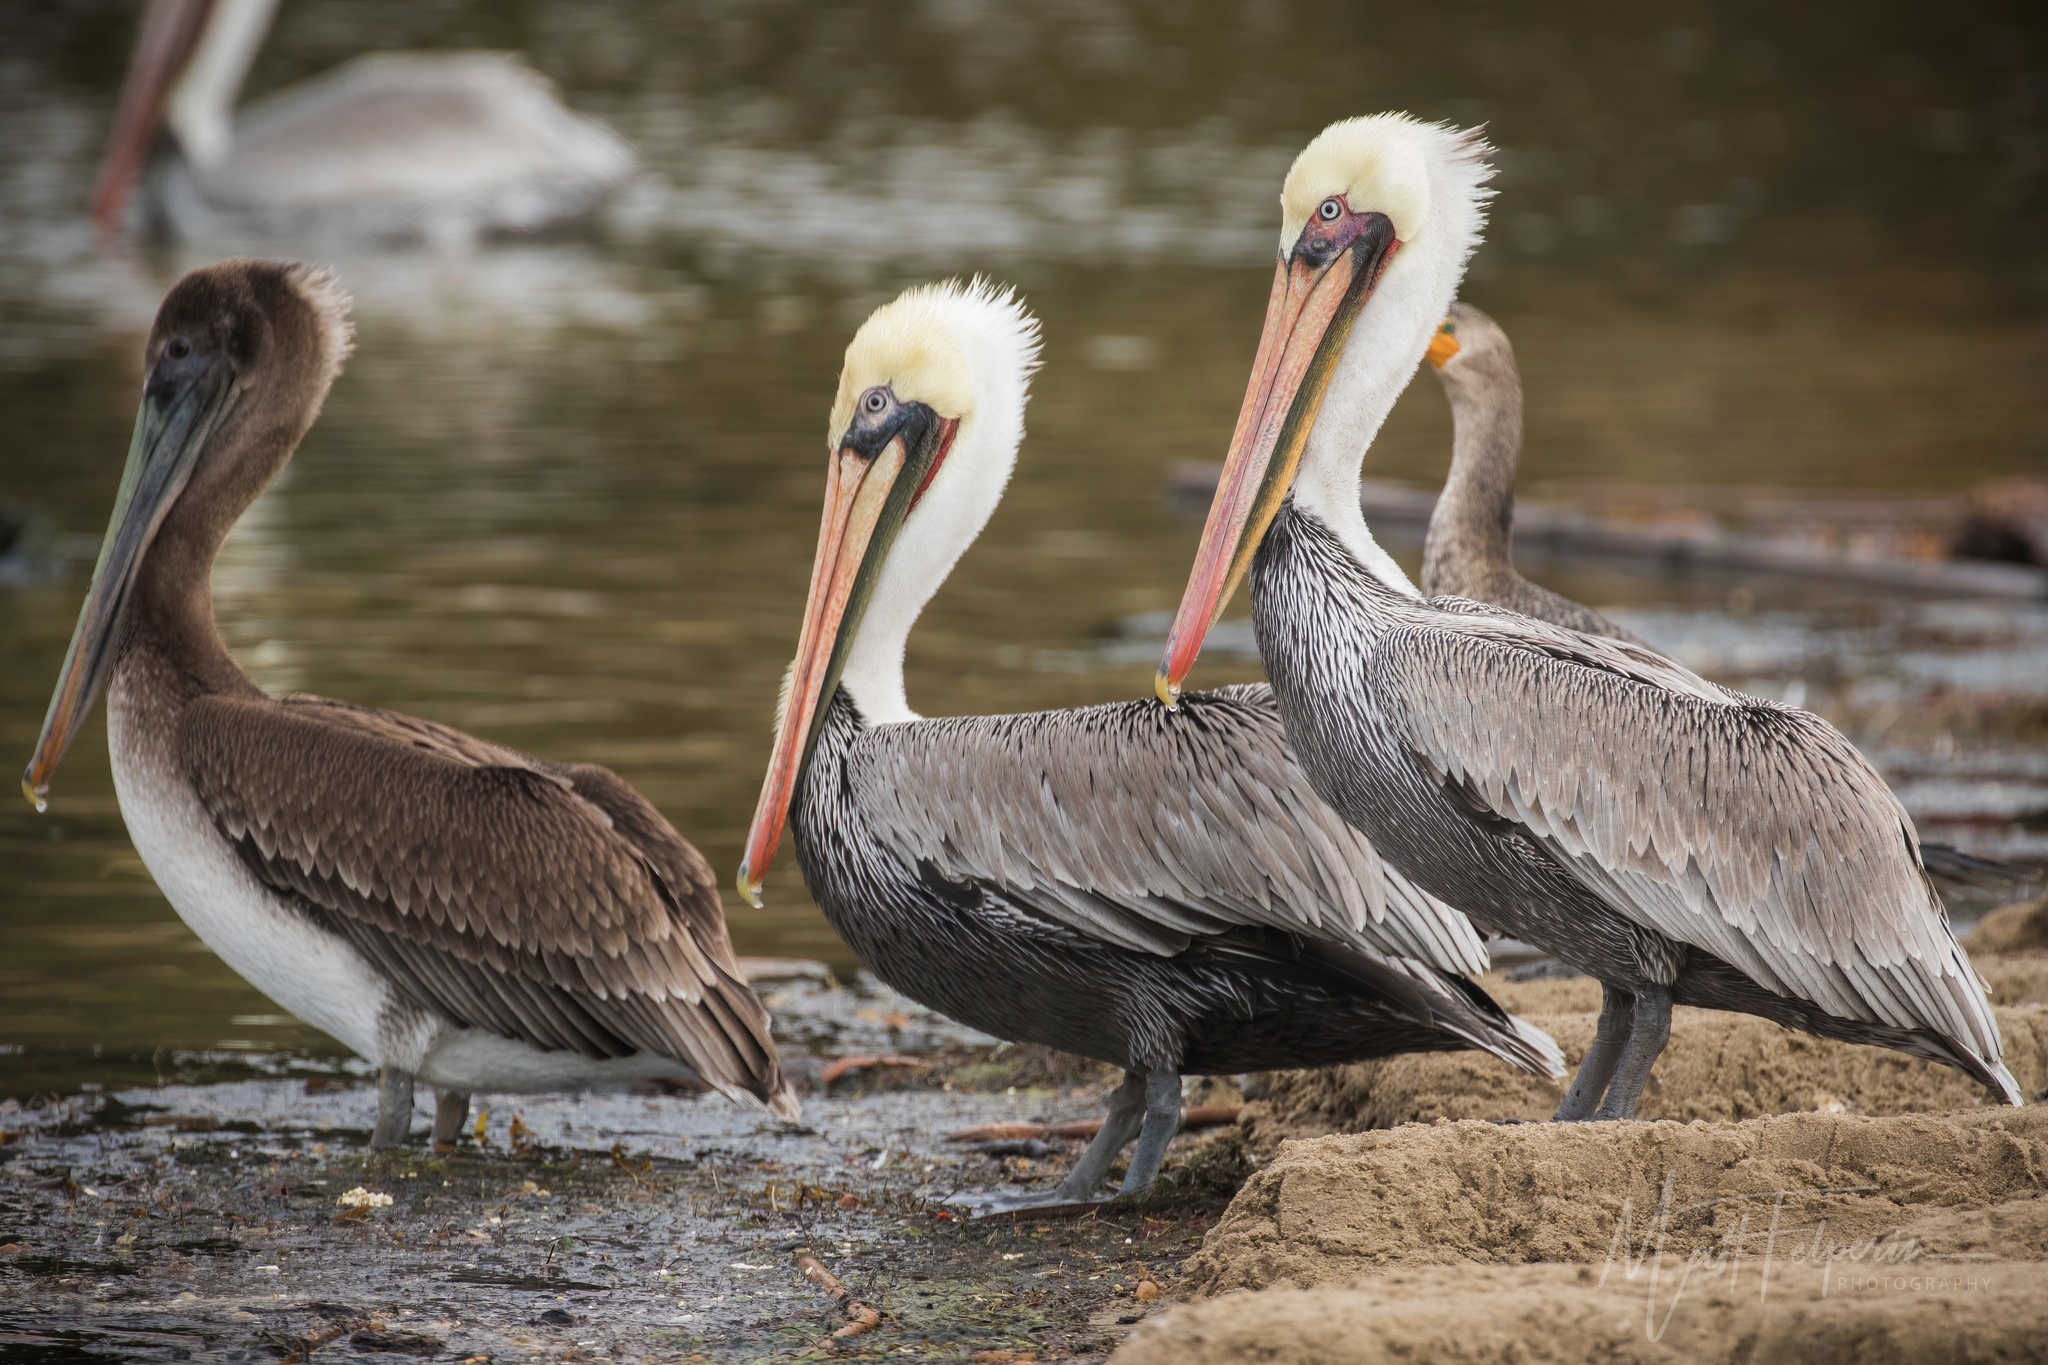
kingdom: Animalia
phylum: Chordata
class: Aves
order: Pelecaniformes
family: Pelecanidae
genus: Pelecanus
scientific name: Pelecanus occidentalis
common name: Brown pelican
